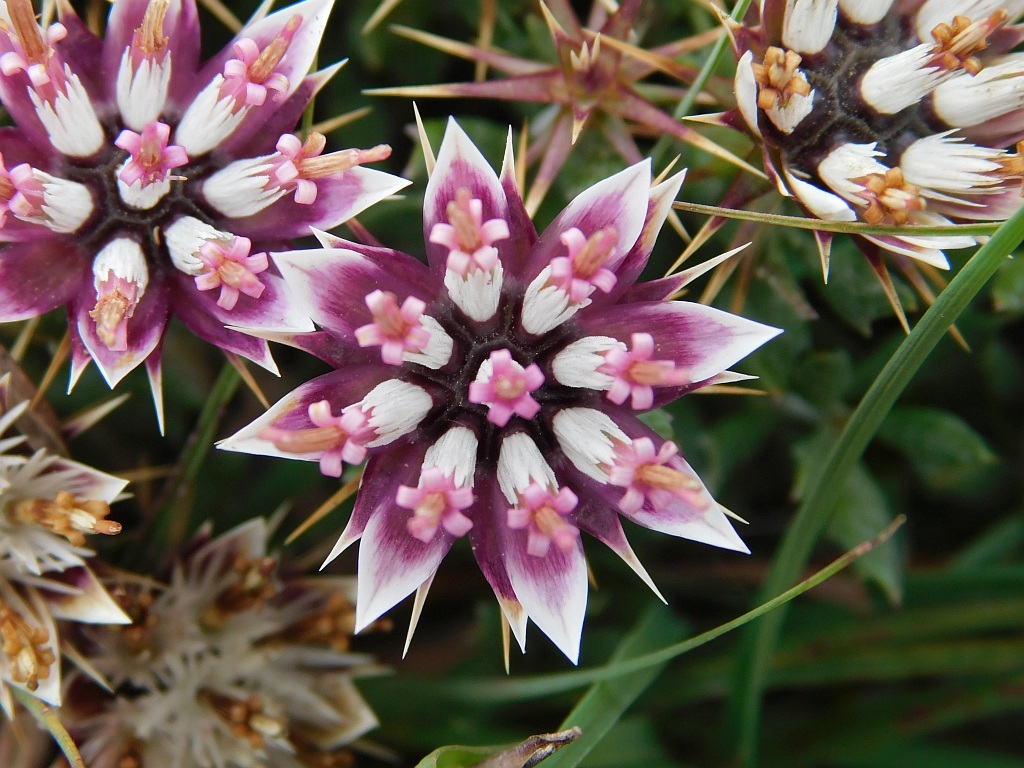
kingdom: Plantae
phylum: Tracheophyta
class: Magnoliopsida
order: Asterales
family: Asteraceae
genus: Macledium
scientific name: Macledium spinosum
